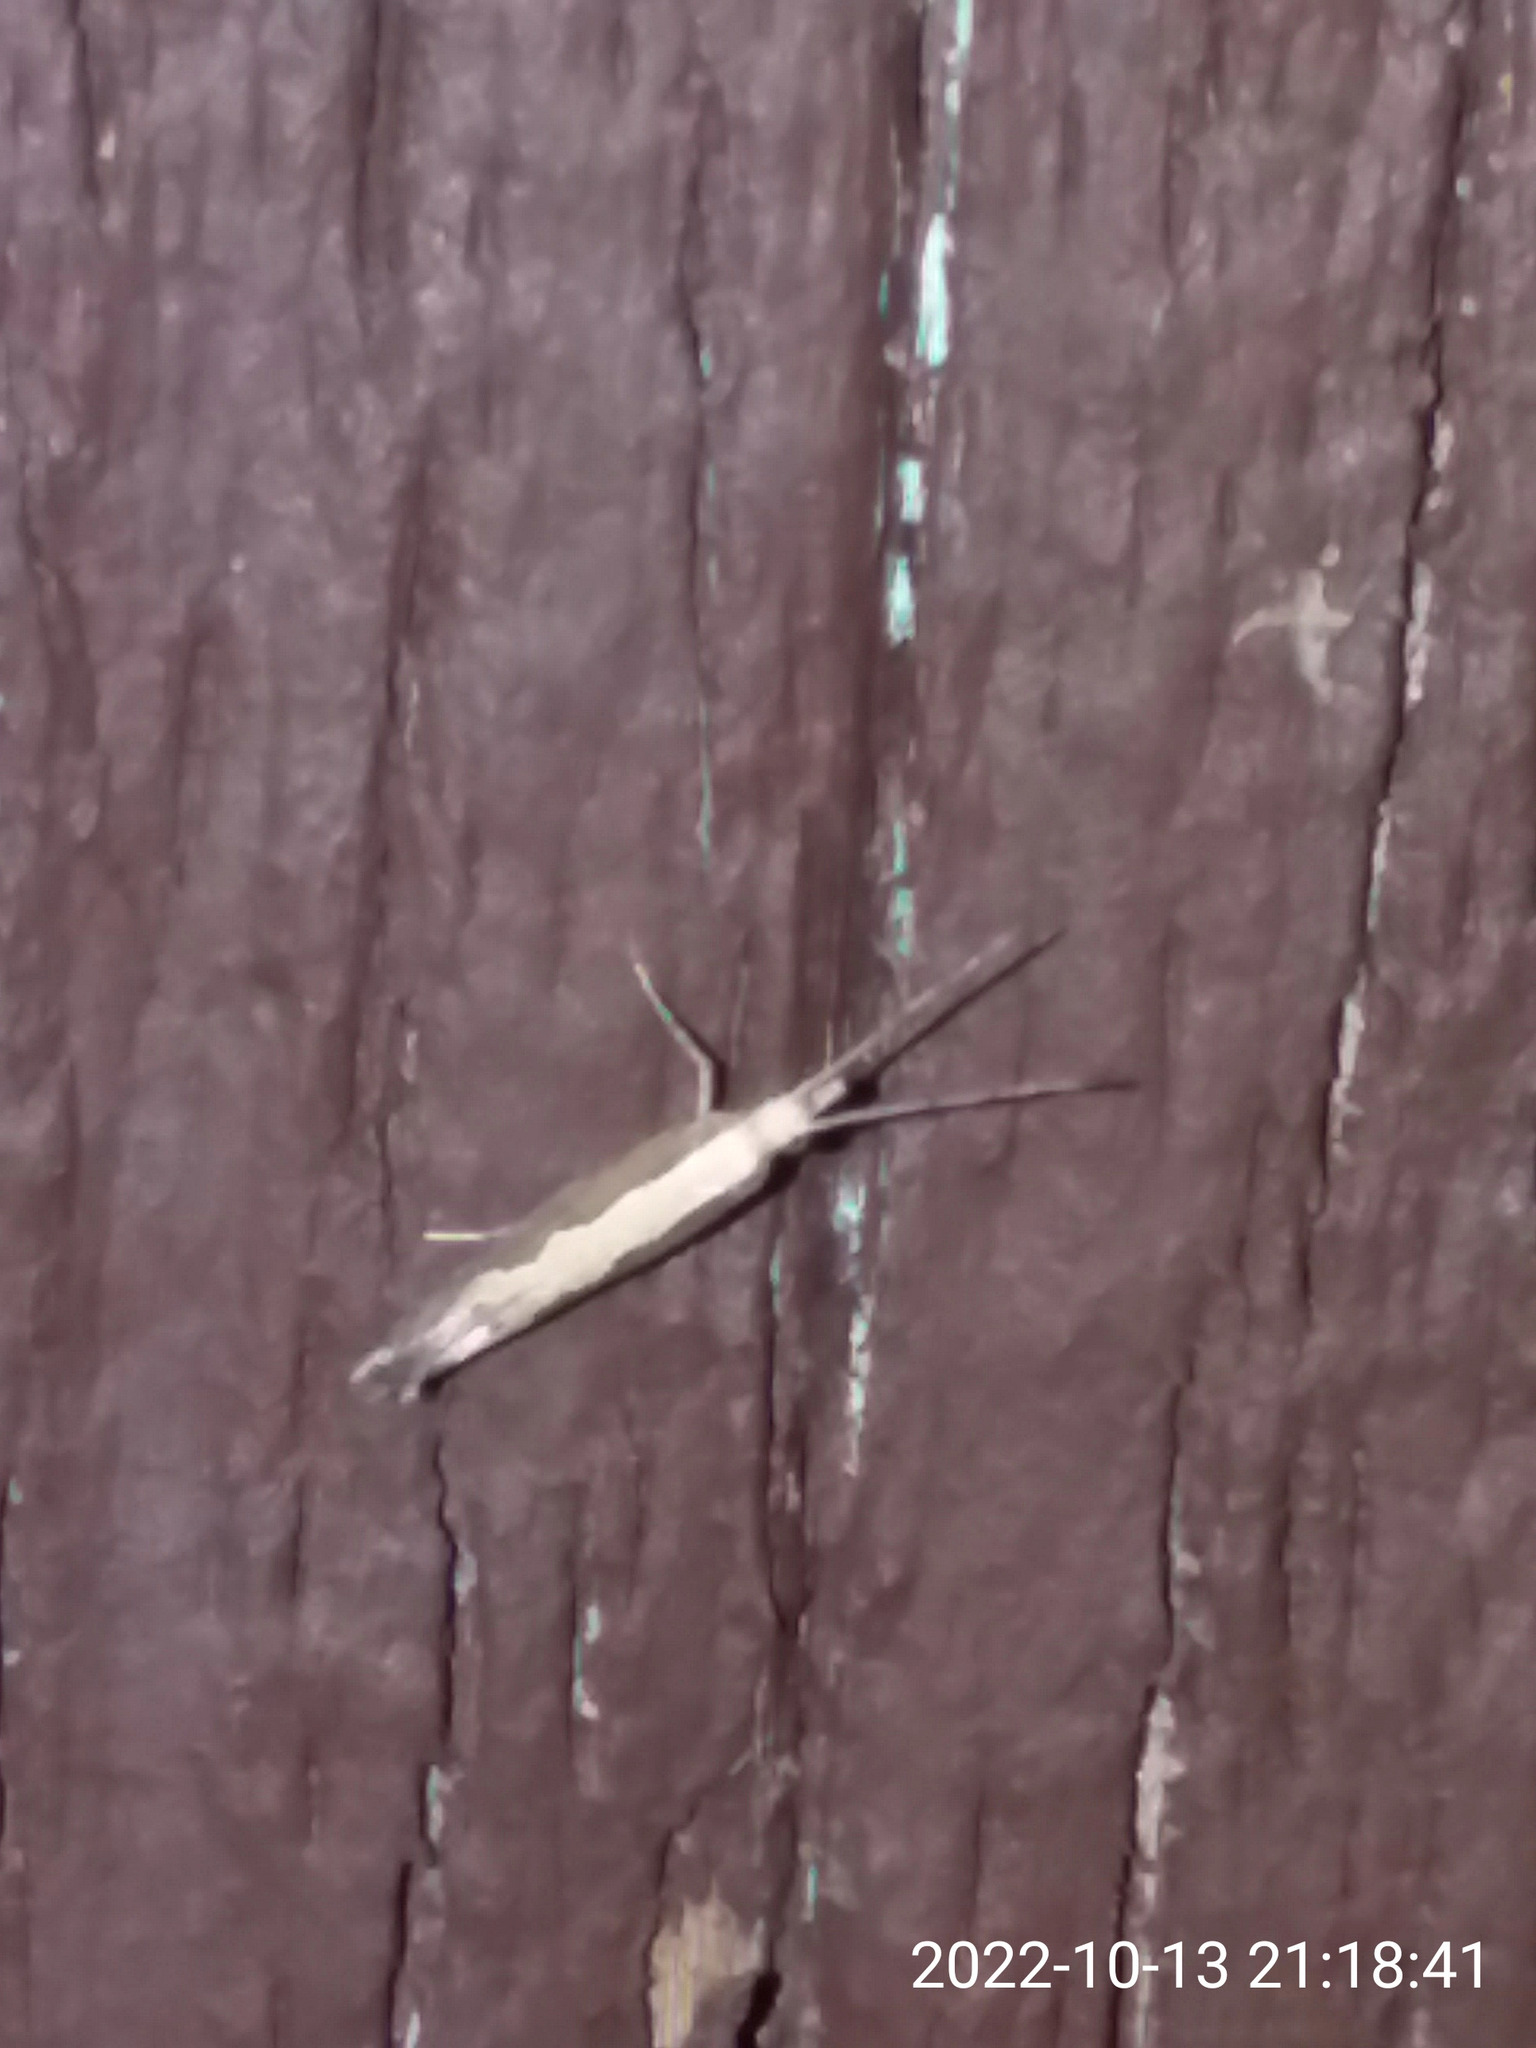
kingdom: Animalia
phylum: Arthropoda
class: Insecta
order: Lepidoptera
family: Plutellidae
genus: Plutella
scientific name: Plutella xylostella
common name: Diamond-back moth
